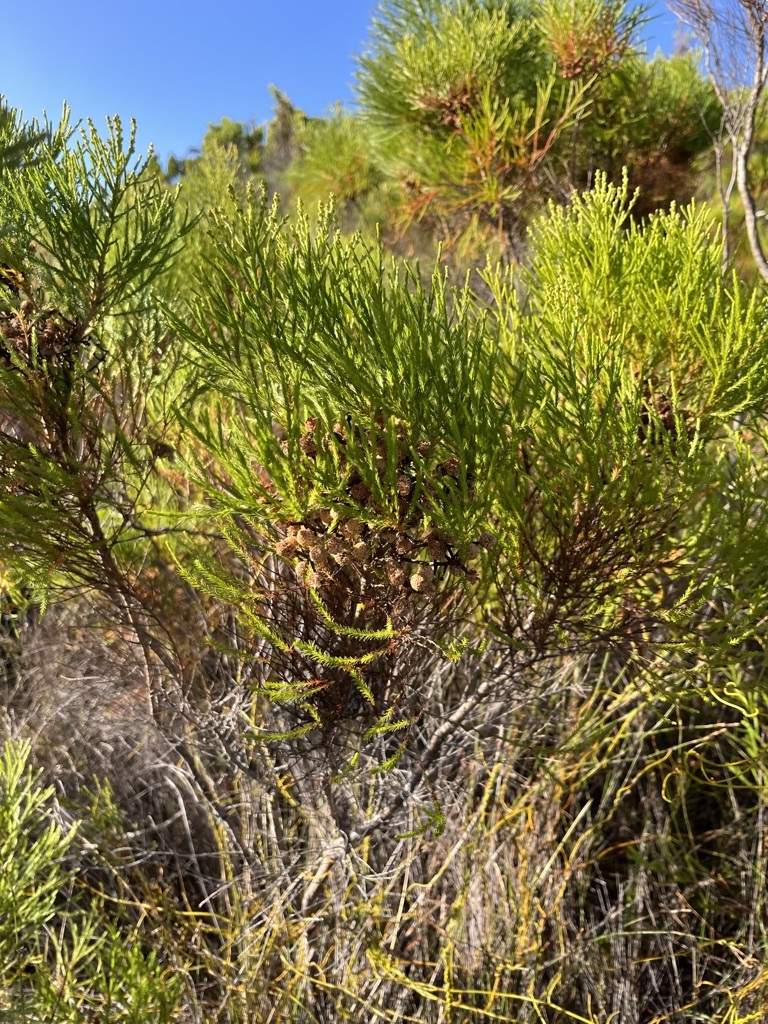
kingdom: Plantae
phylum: Tracheophyta
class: Magnoliopsida
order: Bruniales
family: Bruniaceae
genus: Berzelia
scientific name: Berzelia lanuginosa
